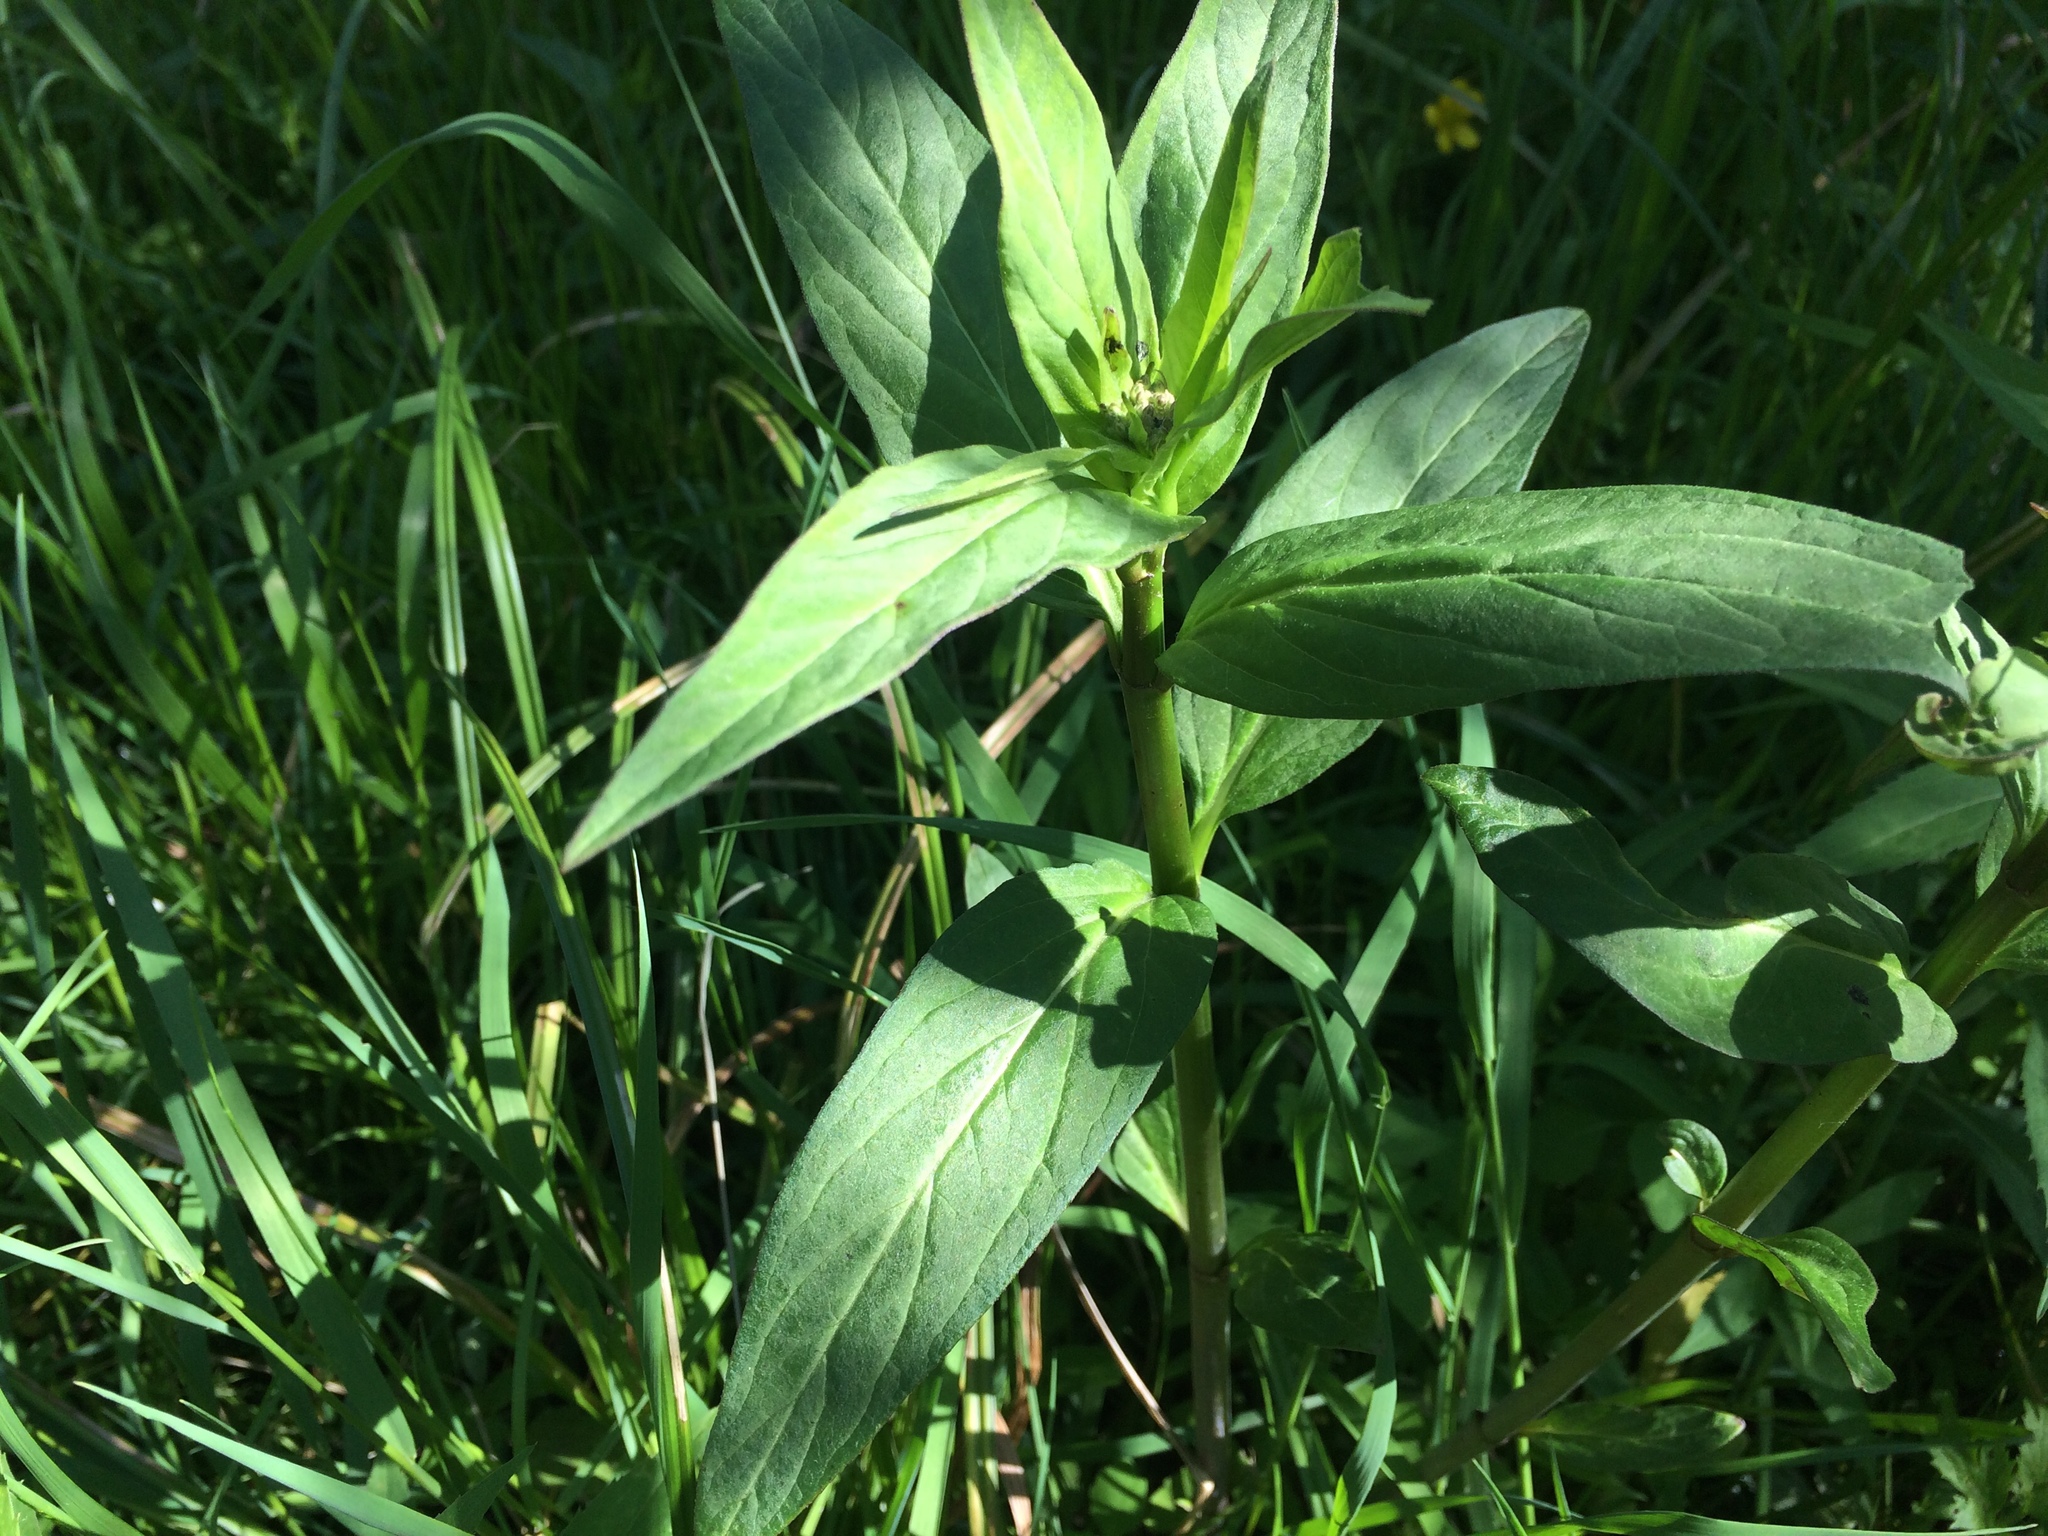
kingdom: Plantae
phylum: Tracheophyta
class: Magnoliopsida
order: Gentianales
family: Apocynaceae
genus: Asclepias
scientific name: Asclepias incarnata
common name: Swamp milkweed
